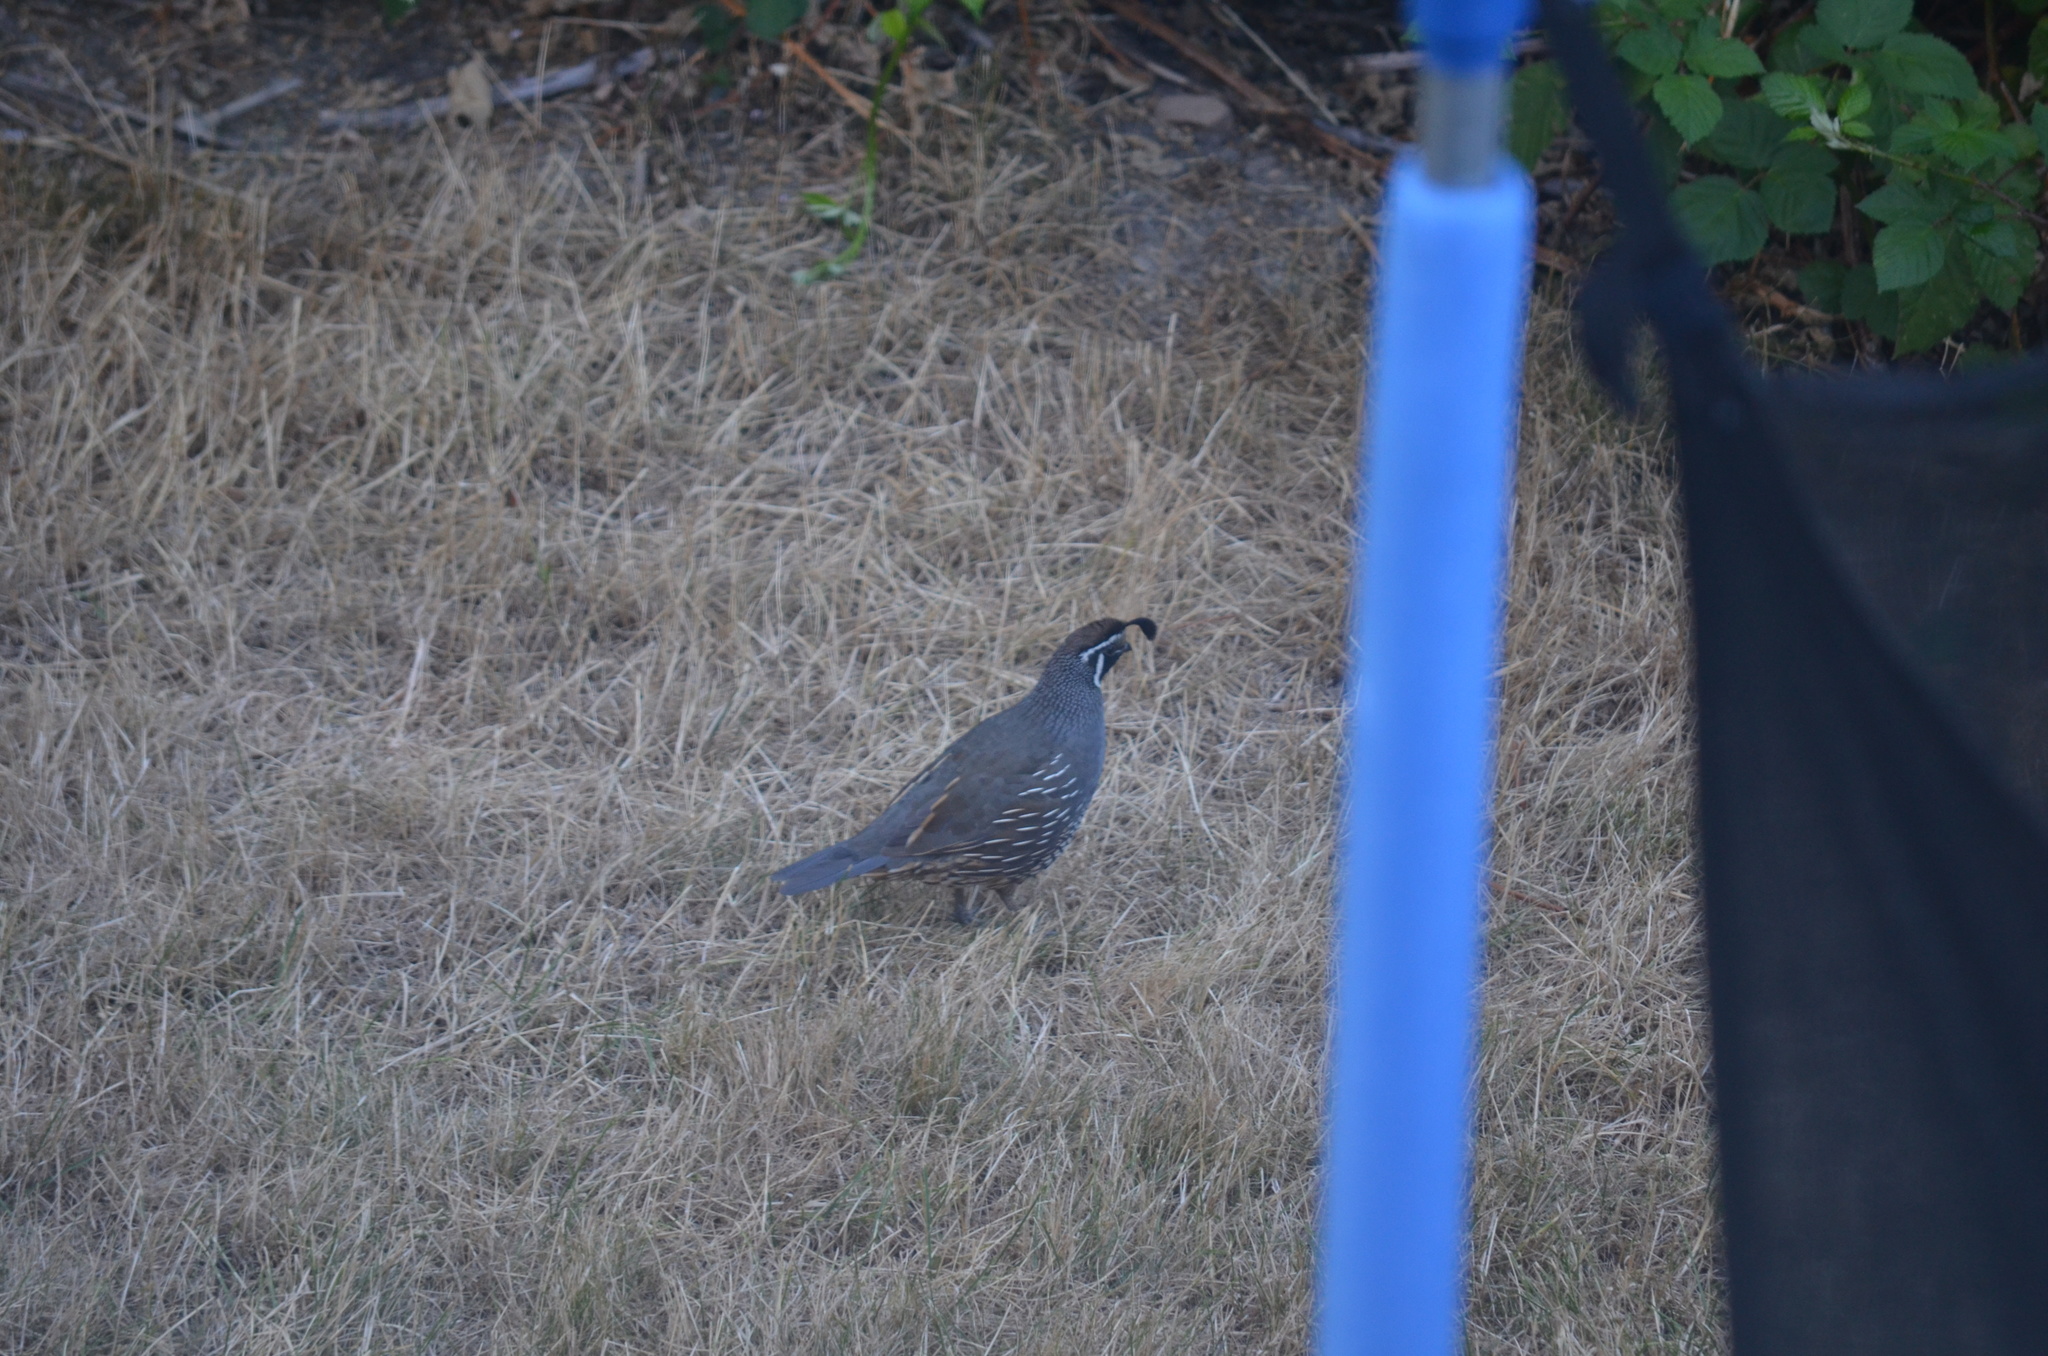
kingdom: Animalia
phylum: Chordata
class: Aves
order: Galliformes
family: Odontophoridae
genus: Callipepla
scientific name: Callipepla californica
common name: California quail
